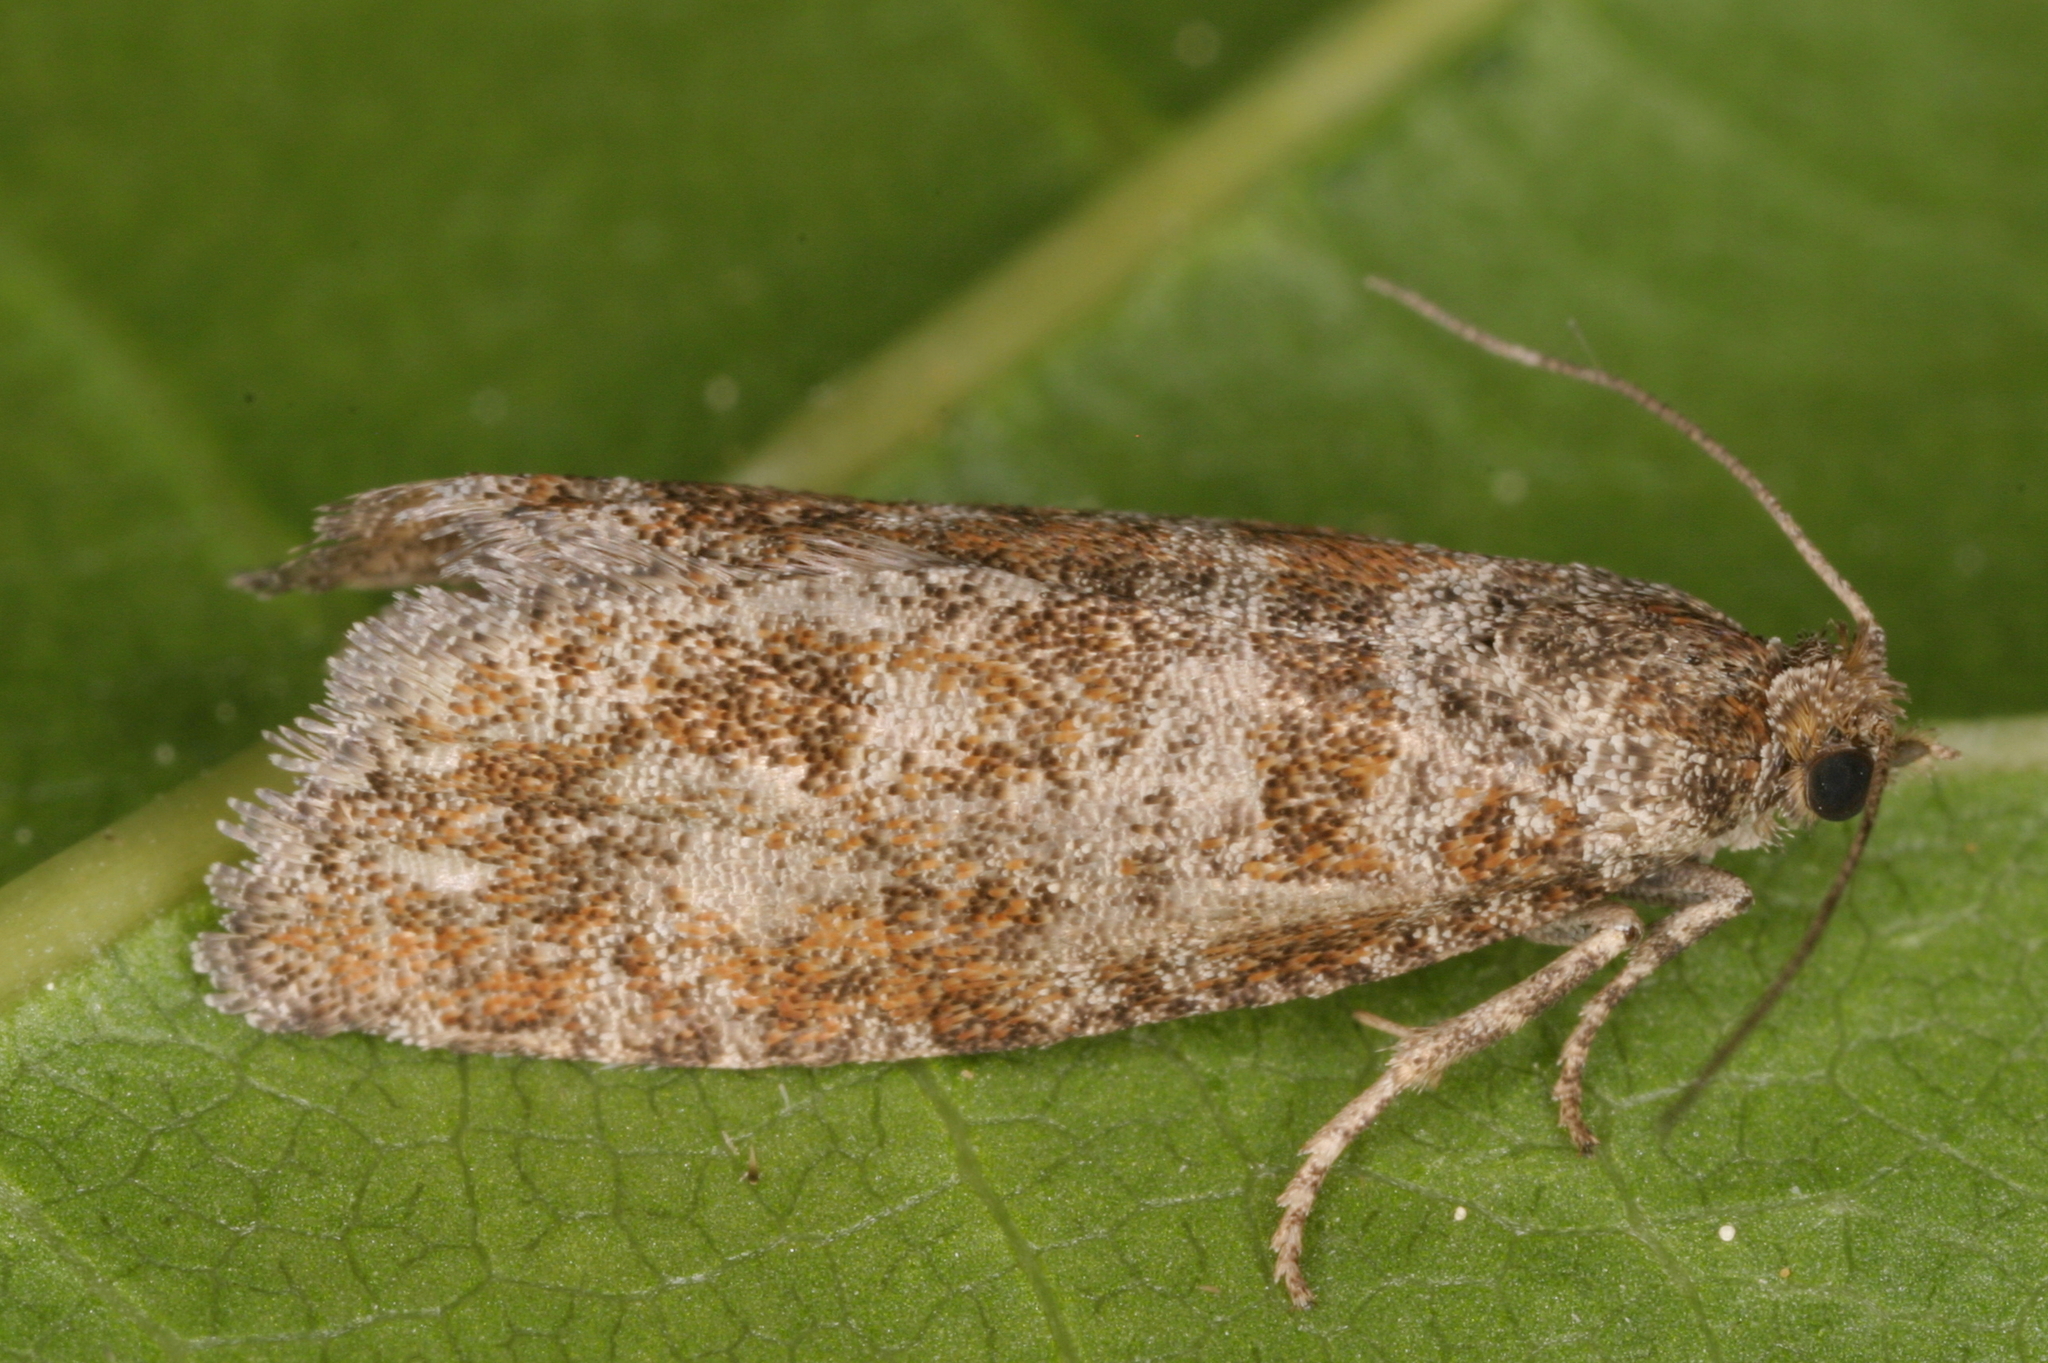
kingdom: Animalia
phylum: Arthropoda
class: Insecta
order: Lepidoptera
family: Tortricidae
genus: Rhyacionia
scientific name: Rhyacionia pinivorana
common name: Spotted shoot moth
